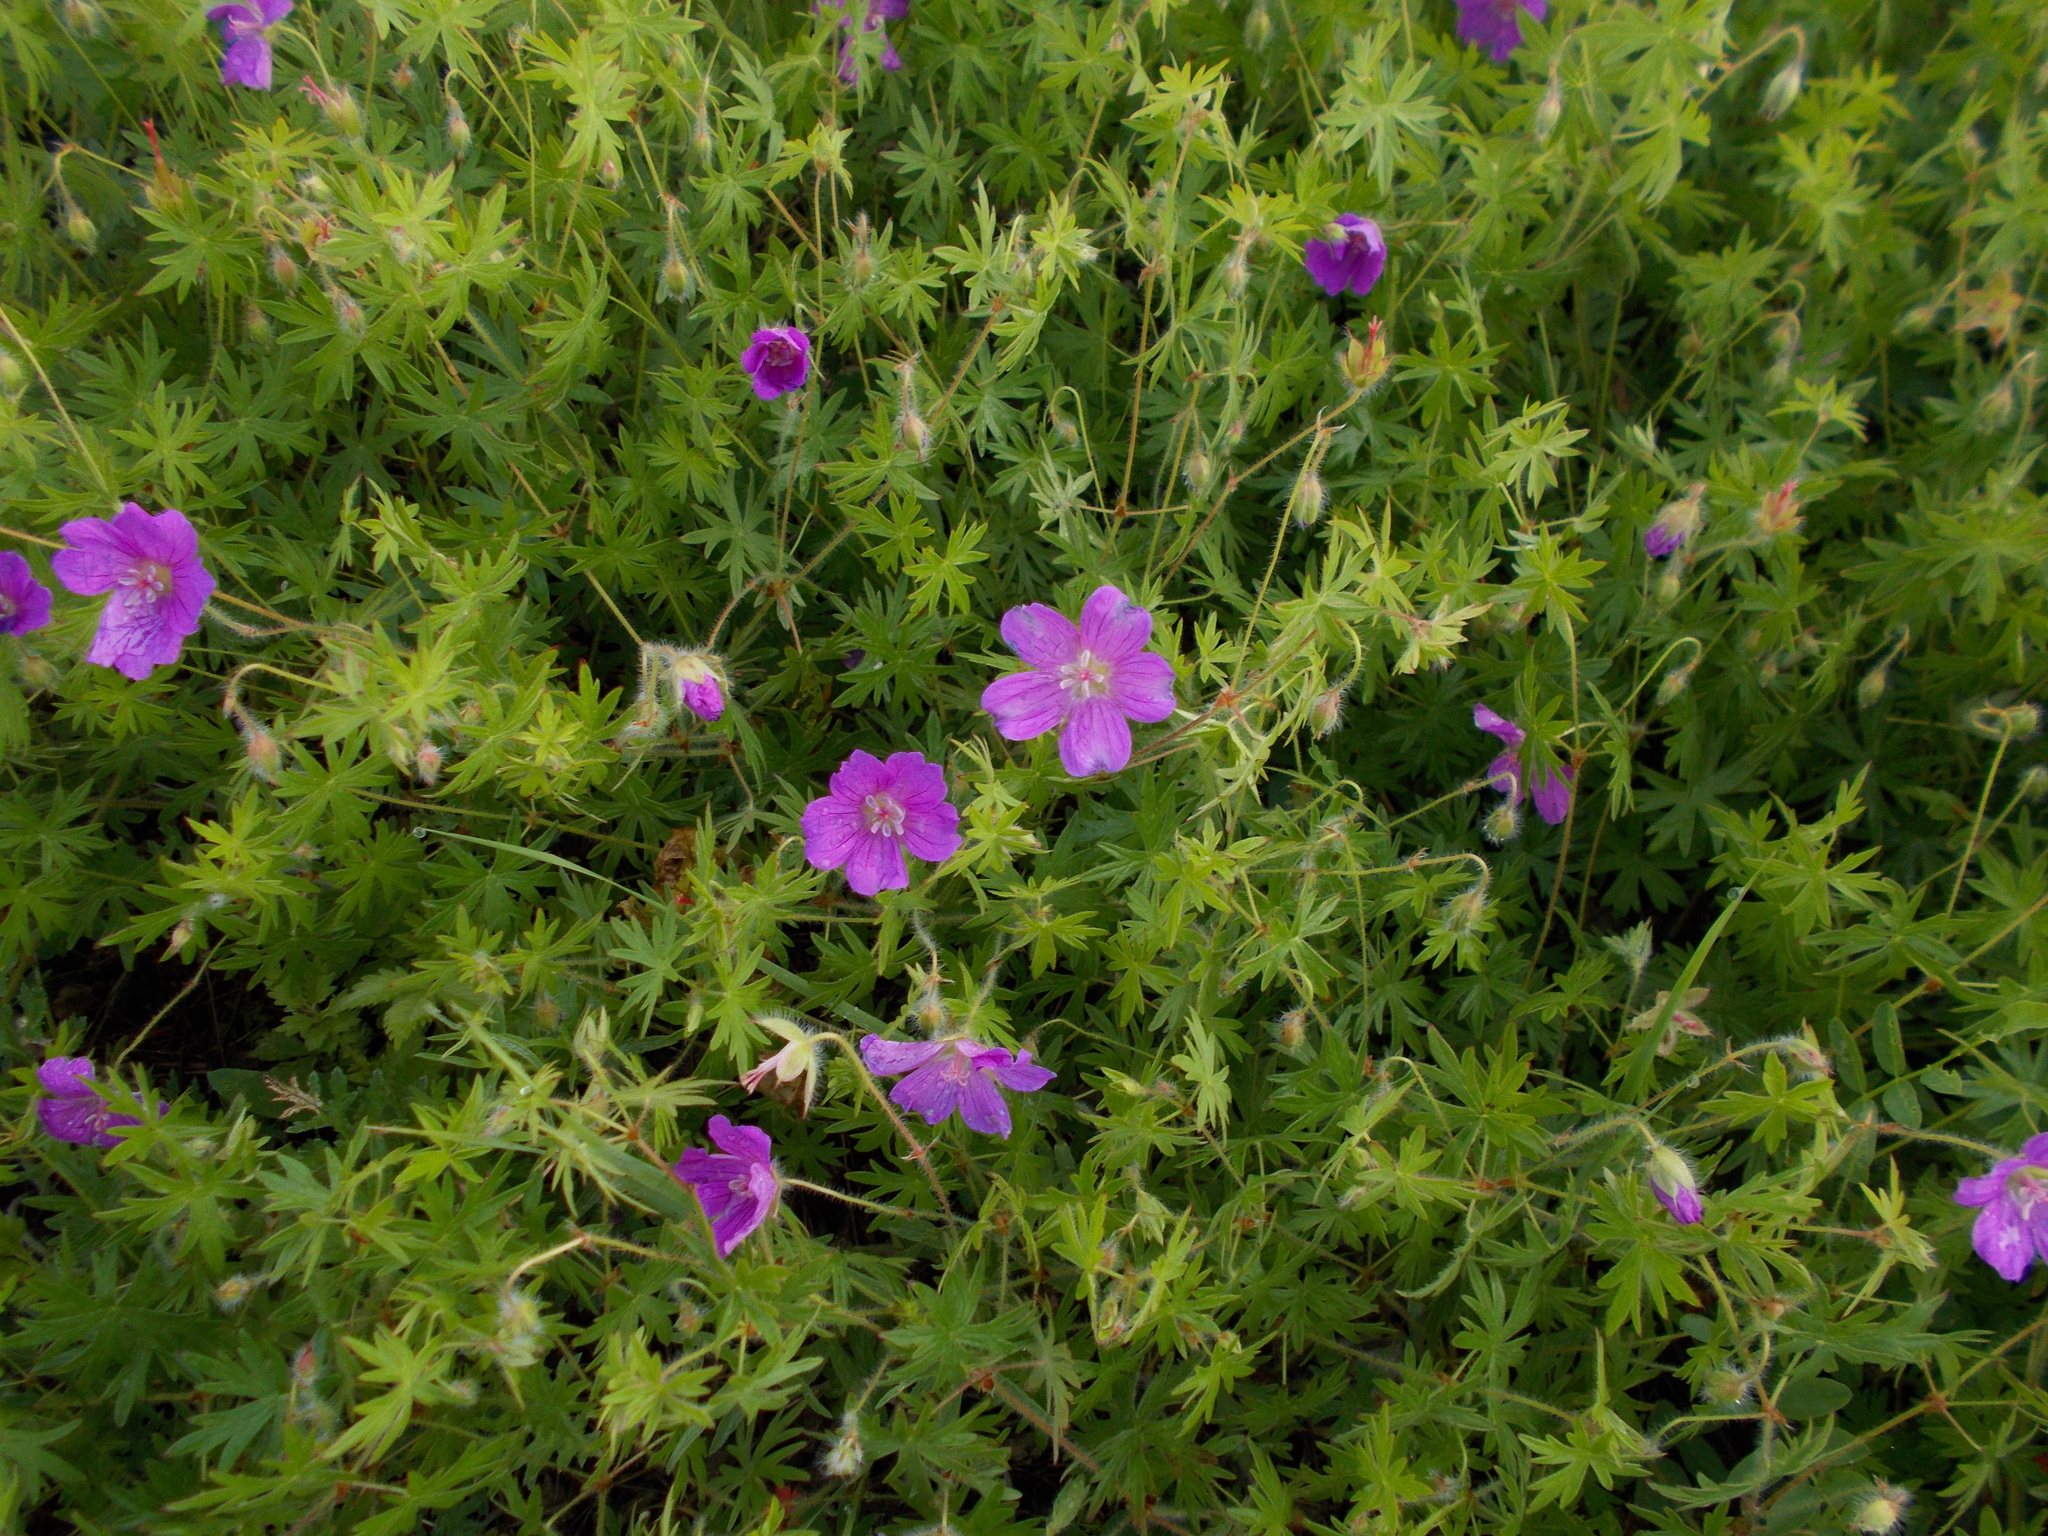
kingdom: Plantae
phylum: Tracheophyta
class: Magnoliopsida
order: Geraniales
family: Geraniaceae
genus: Geranium
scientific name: Geranium sanguineum
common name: Bloody crane's-bill
